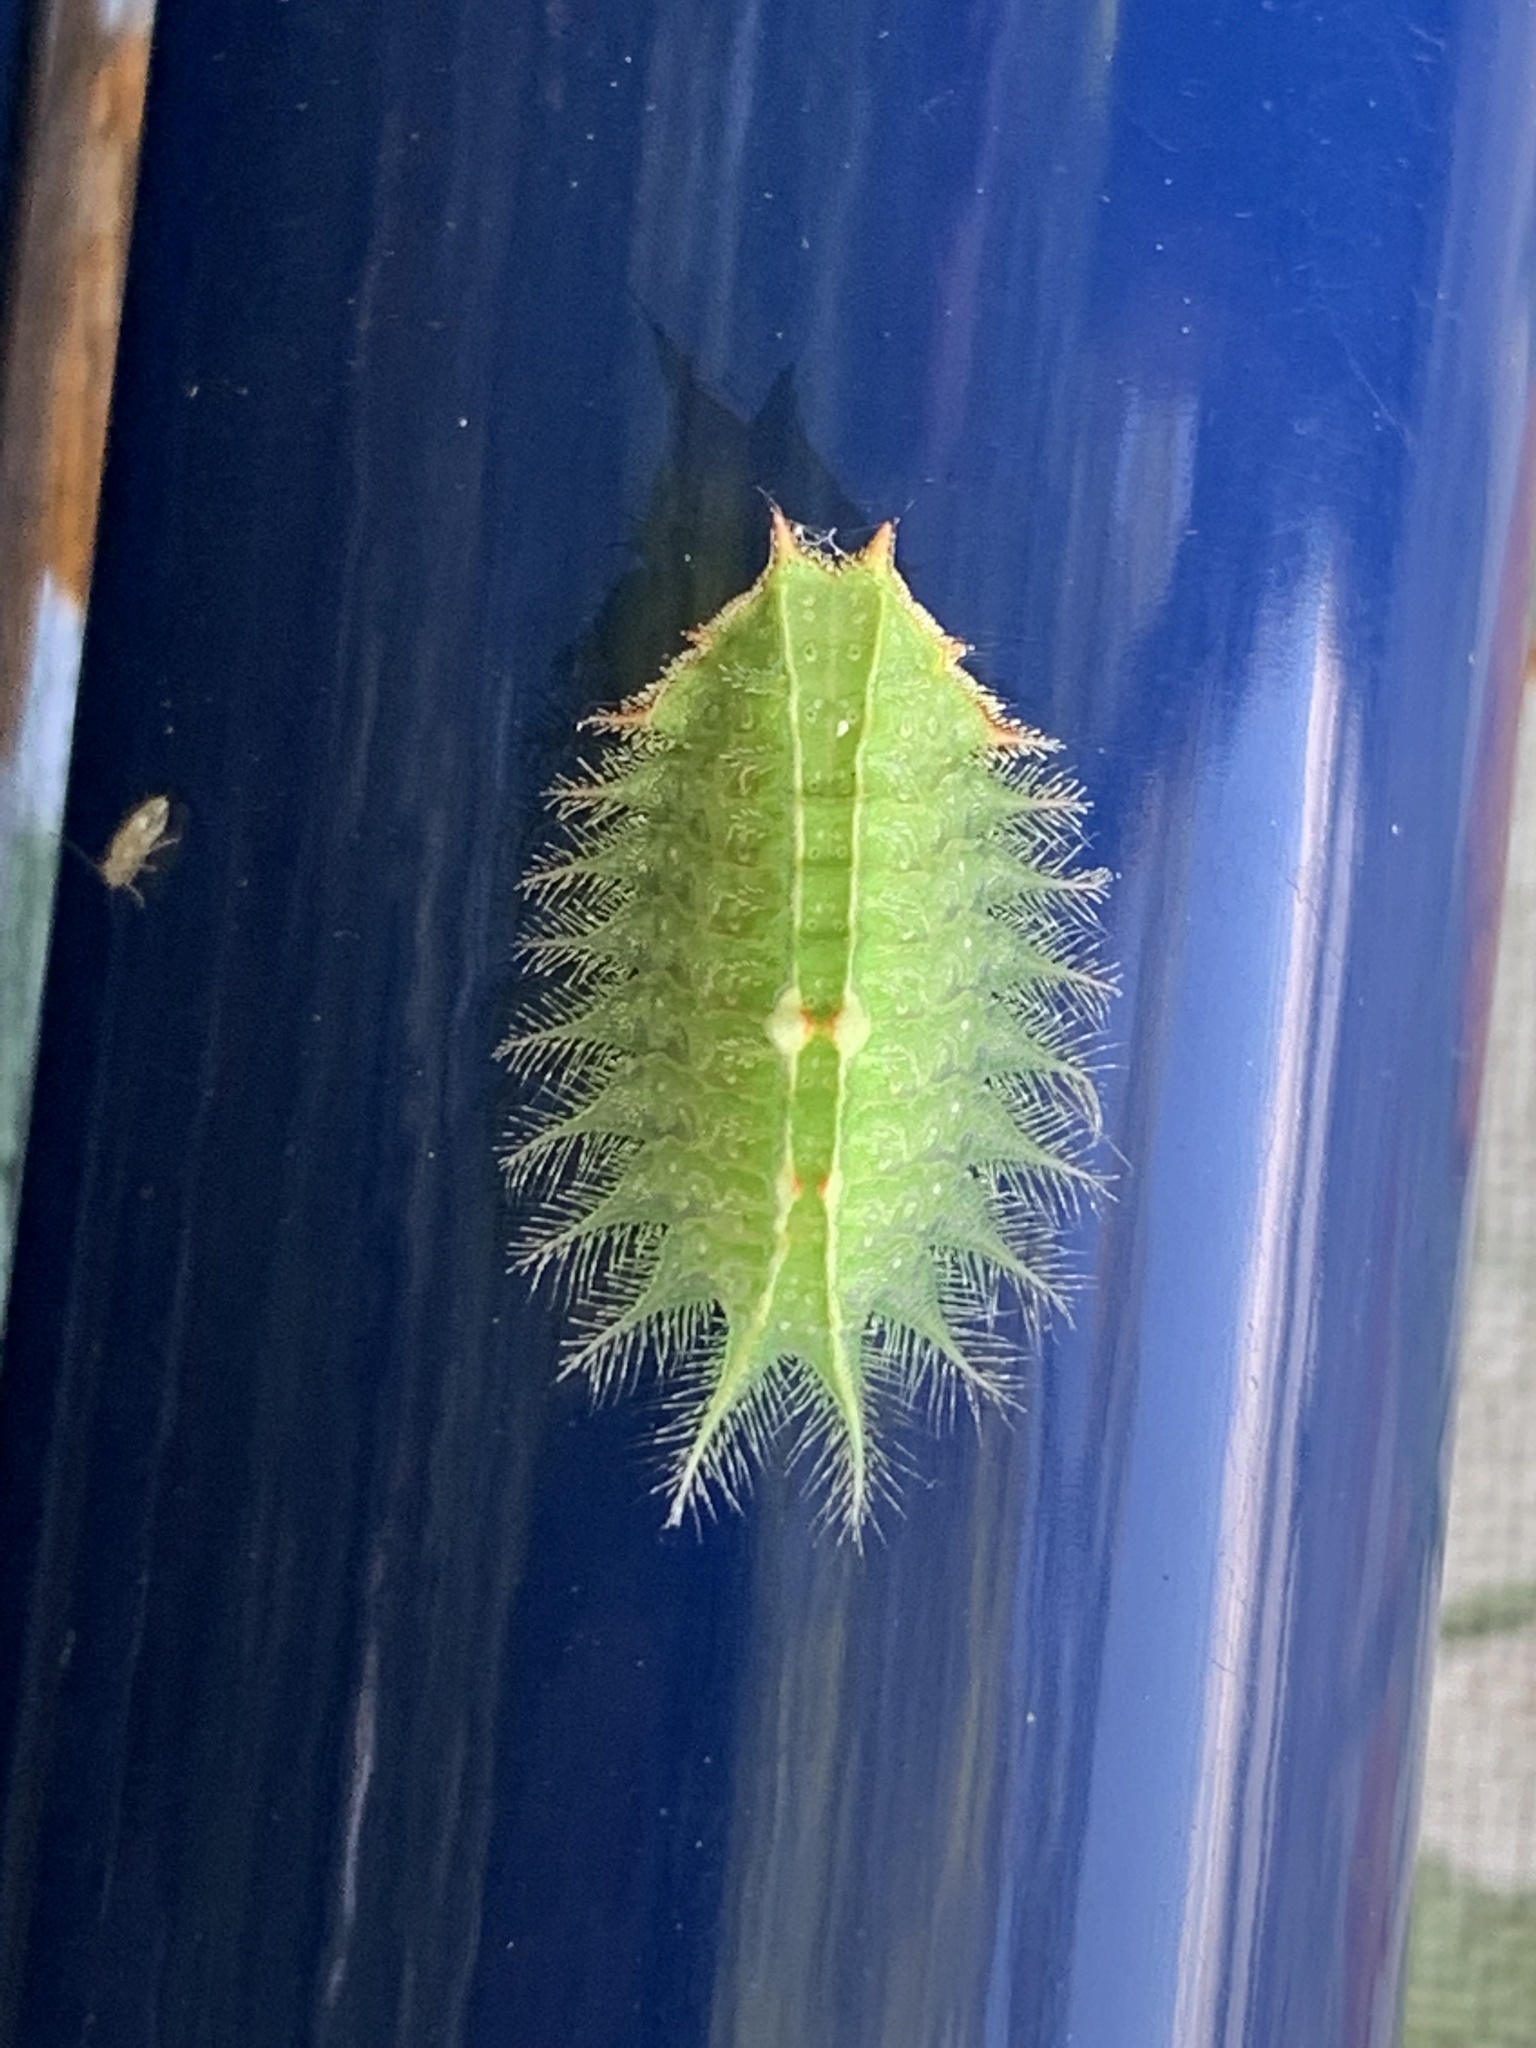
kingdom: Animalia
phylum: Arthropoda
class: Insecta
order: Lepidoptera
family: Limacodidae
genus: Isa
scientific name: Isa textula
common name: Crowned slug moth
